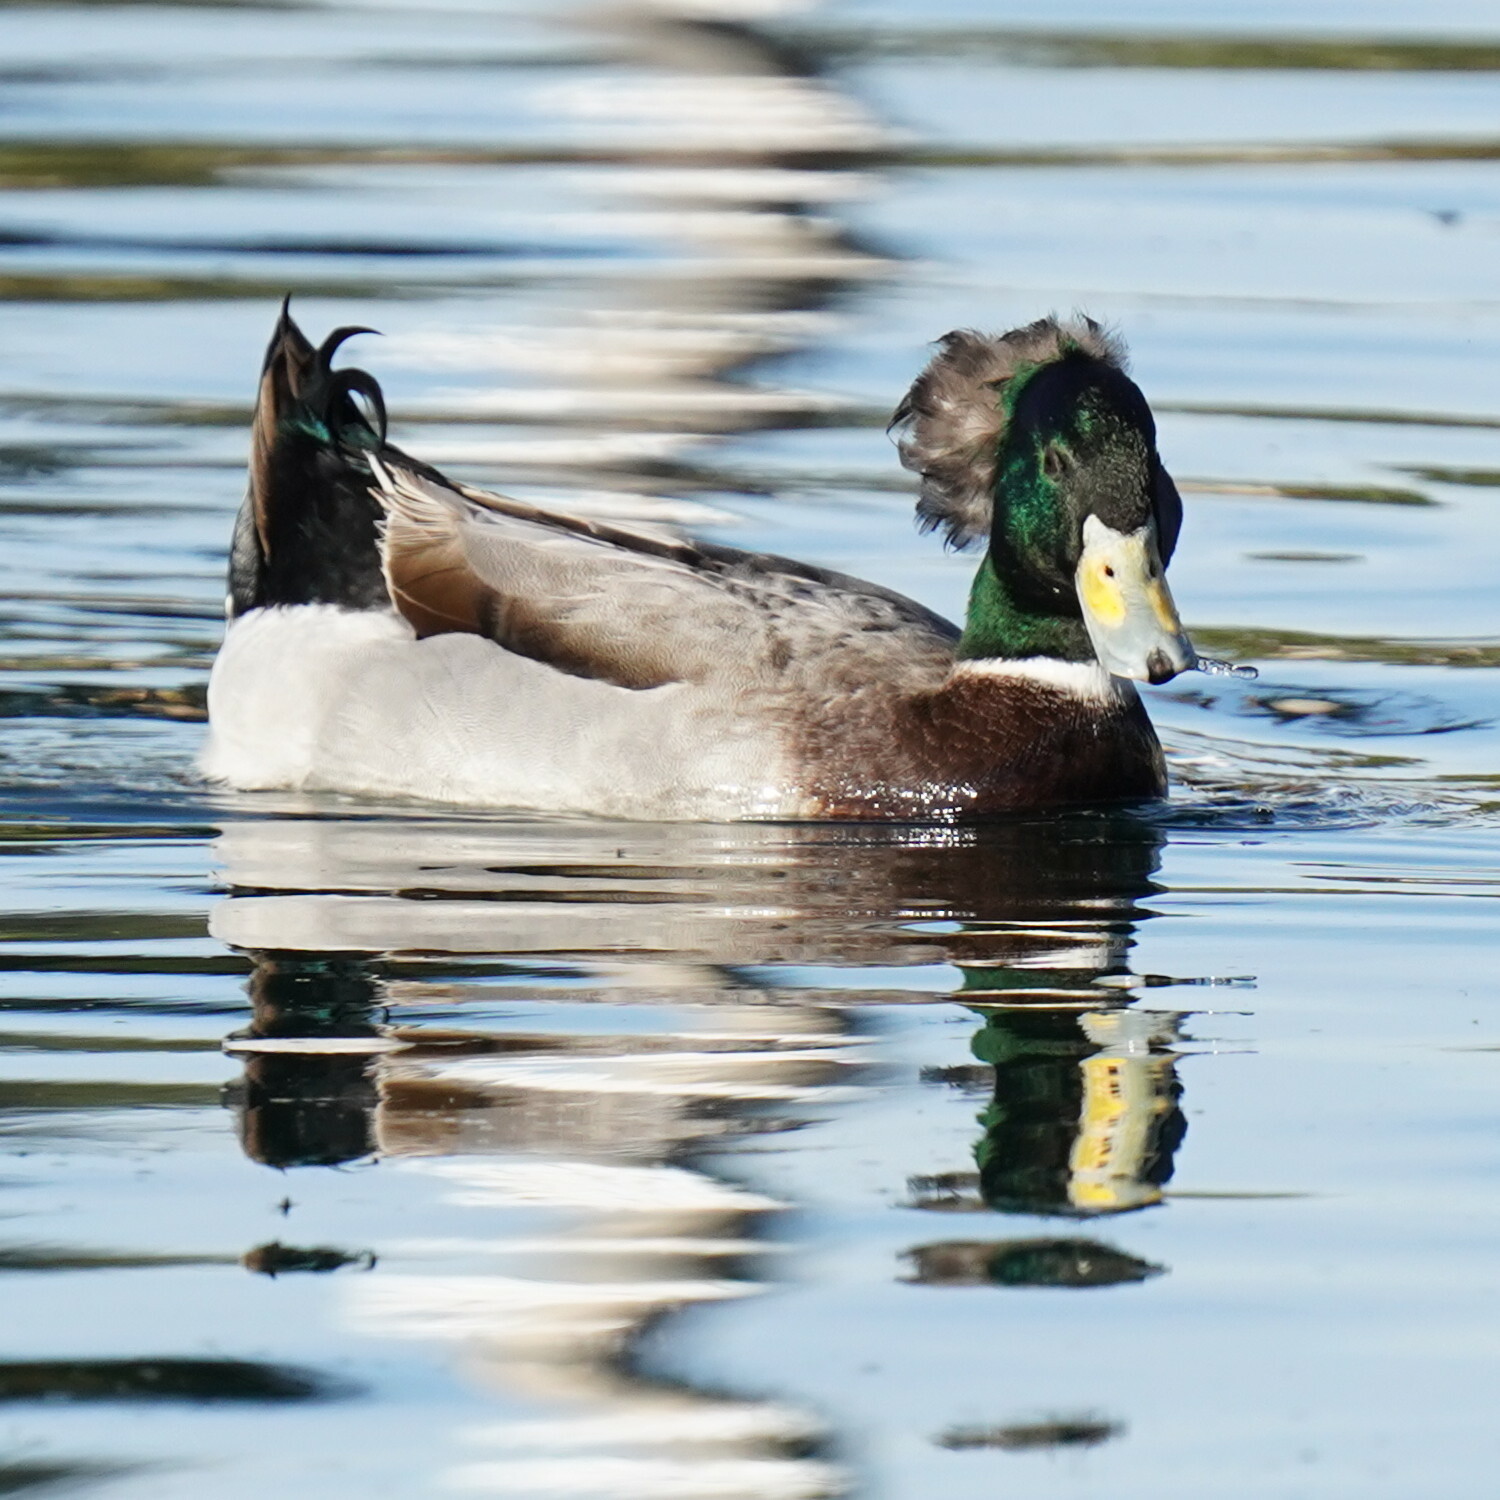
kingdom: Animalia
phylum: Chordata
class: Aves
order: Anseriformes
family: Anatidae
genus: Anas
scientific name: Anas platyrhynchos
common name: Mallard
